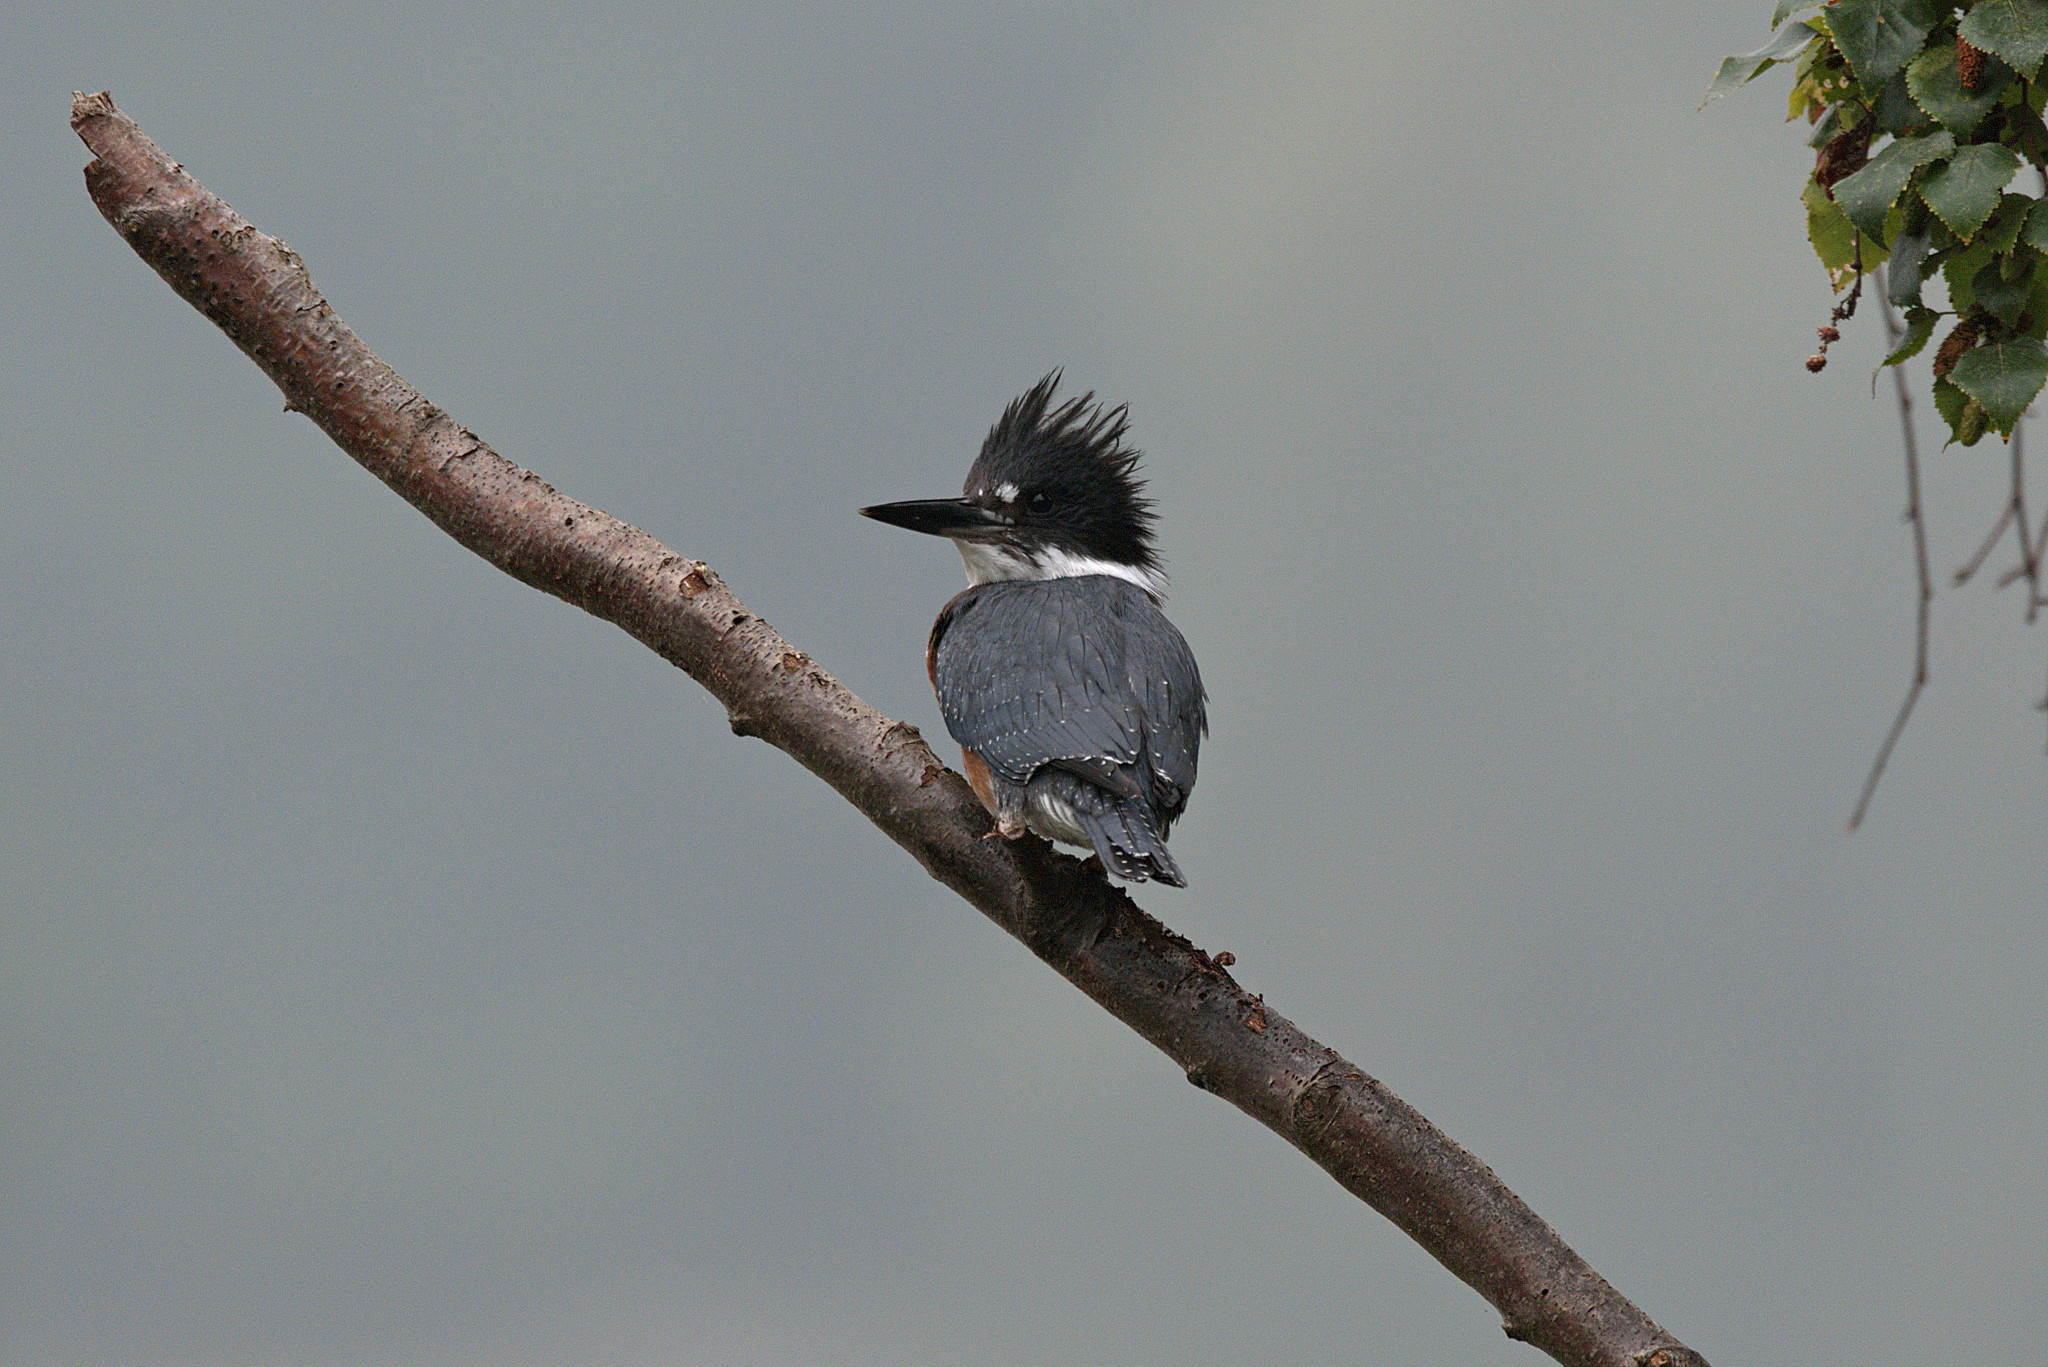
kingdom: Animalia
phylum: Chordata
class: Aves
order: Coraciiformes
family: Alcedinidae
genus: Megaceryle
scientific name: Megaceryle alcyon
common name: Belted kingfisher
